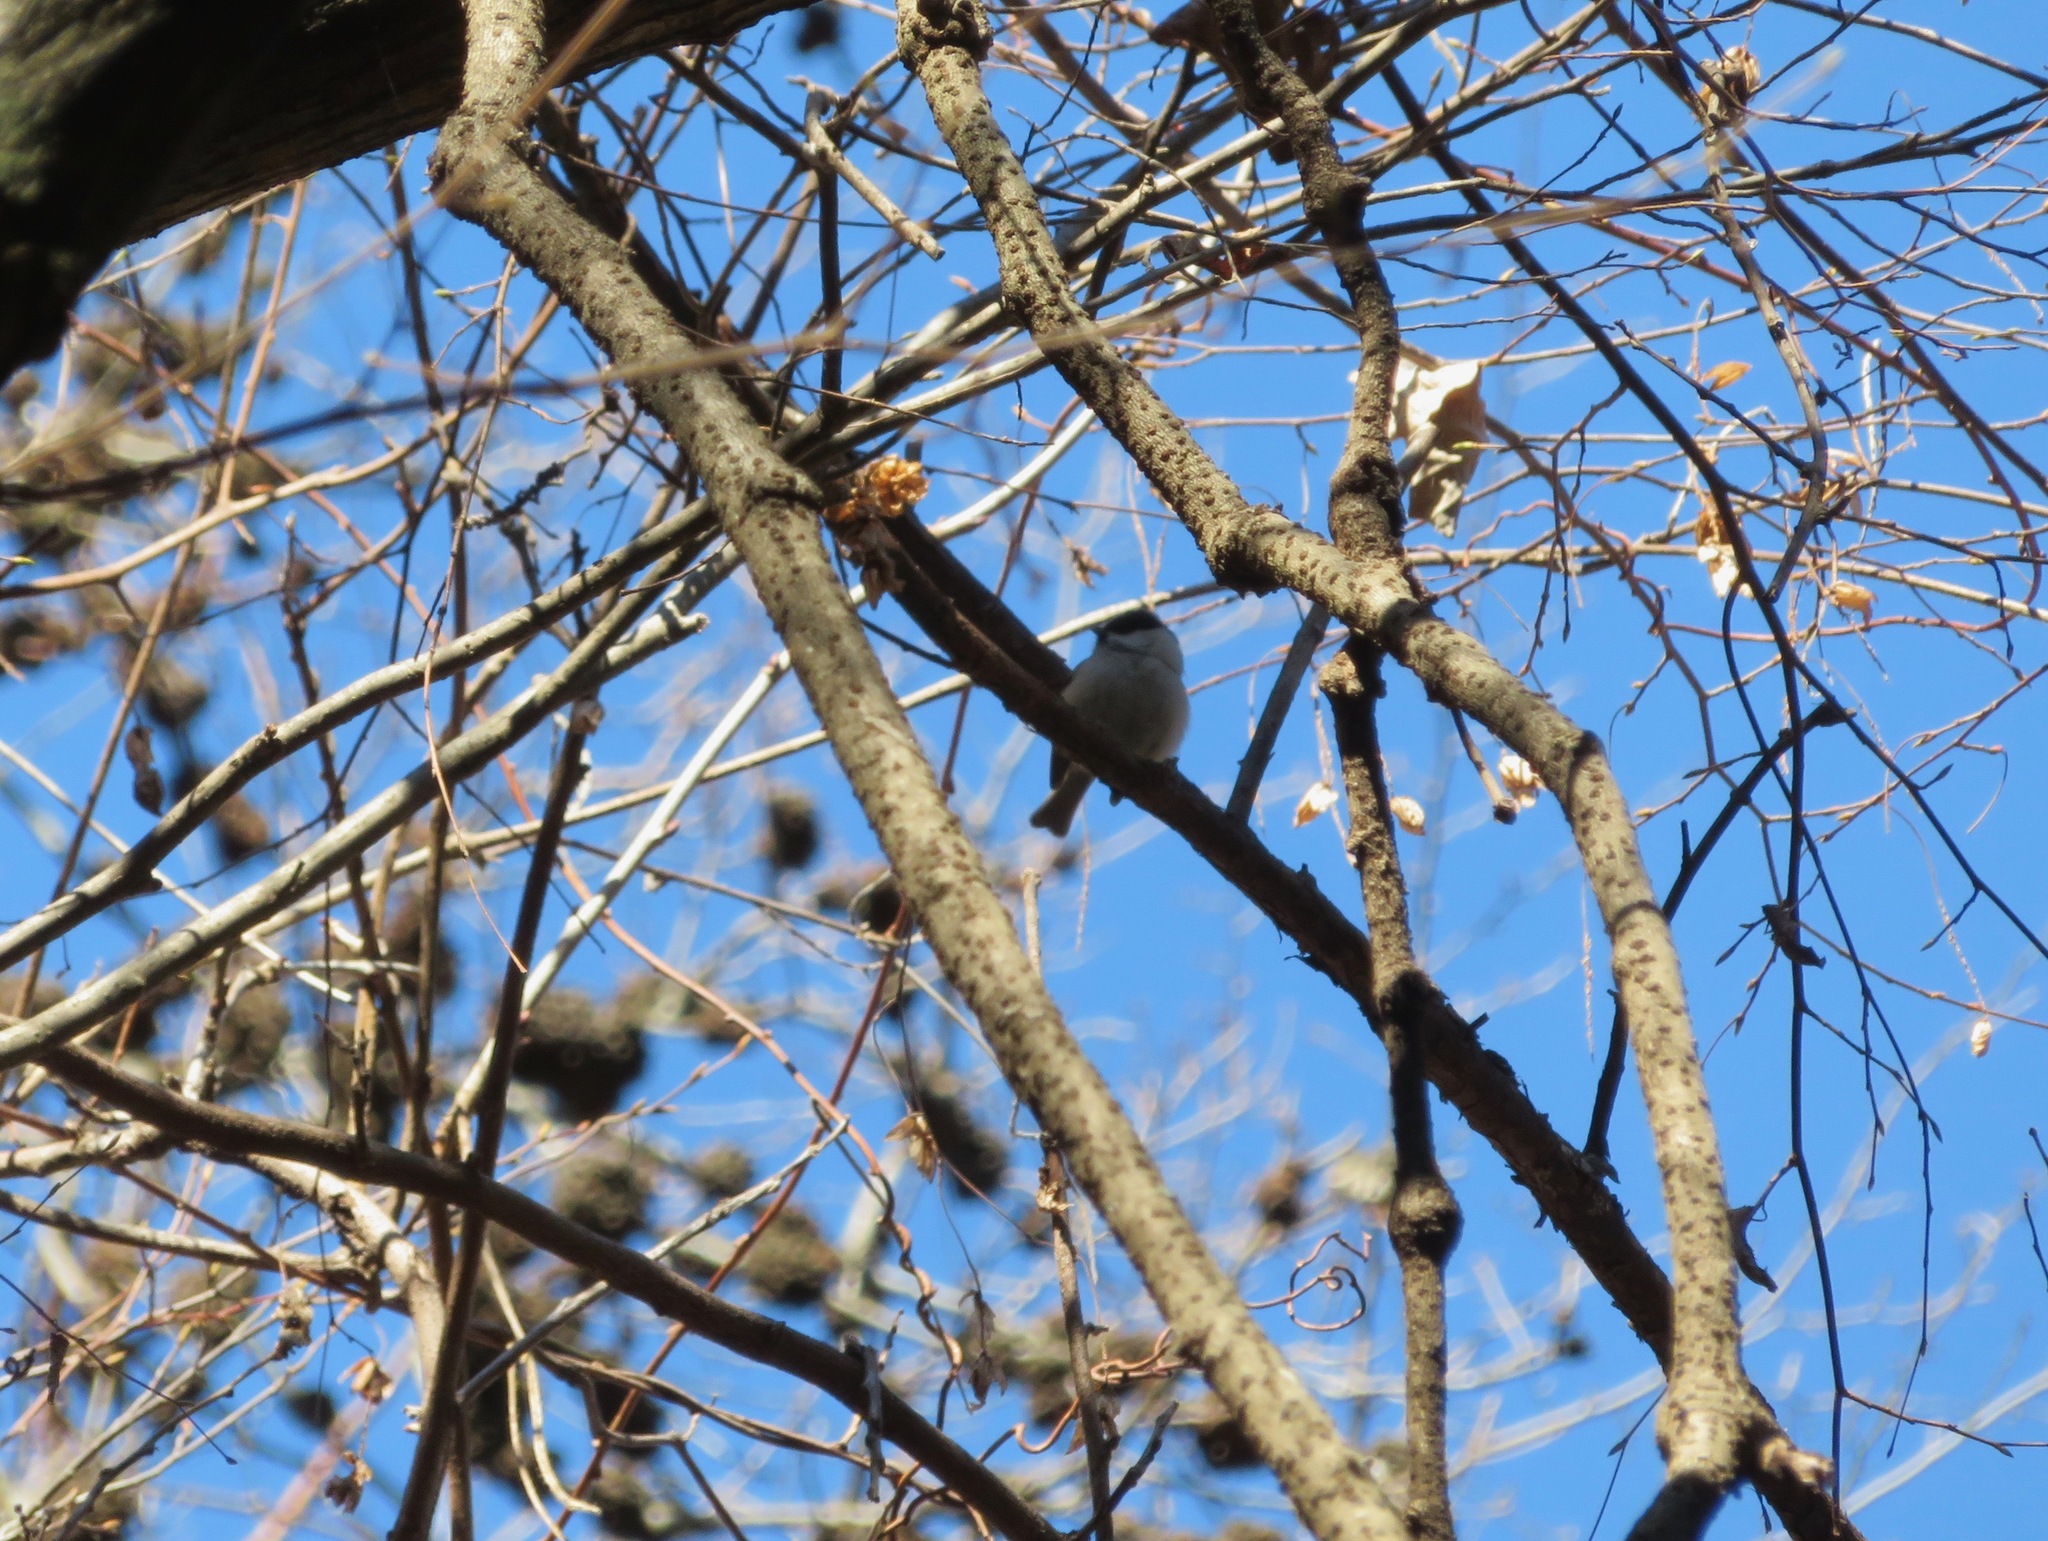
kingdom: Animalia
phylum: Chordata
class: Aves
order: Passeriformes
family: Paridae
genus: Poecile
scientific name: Poecile montanus
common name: Willow tit
